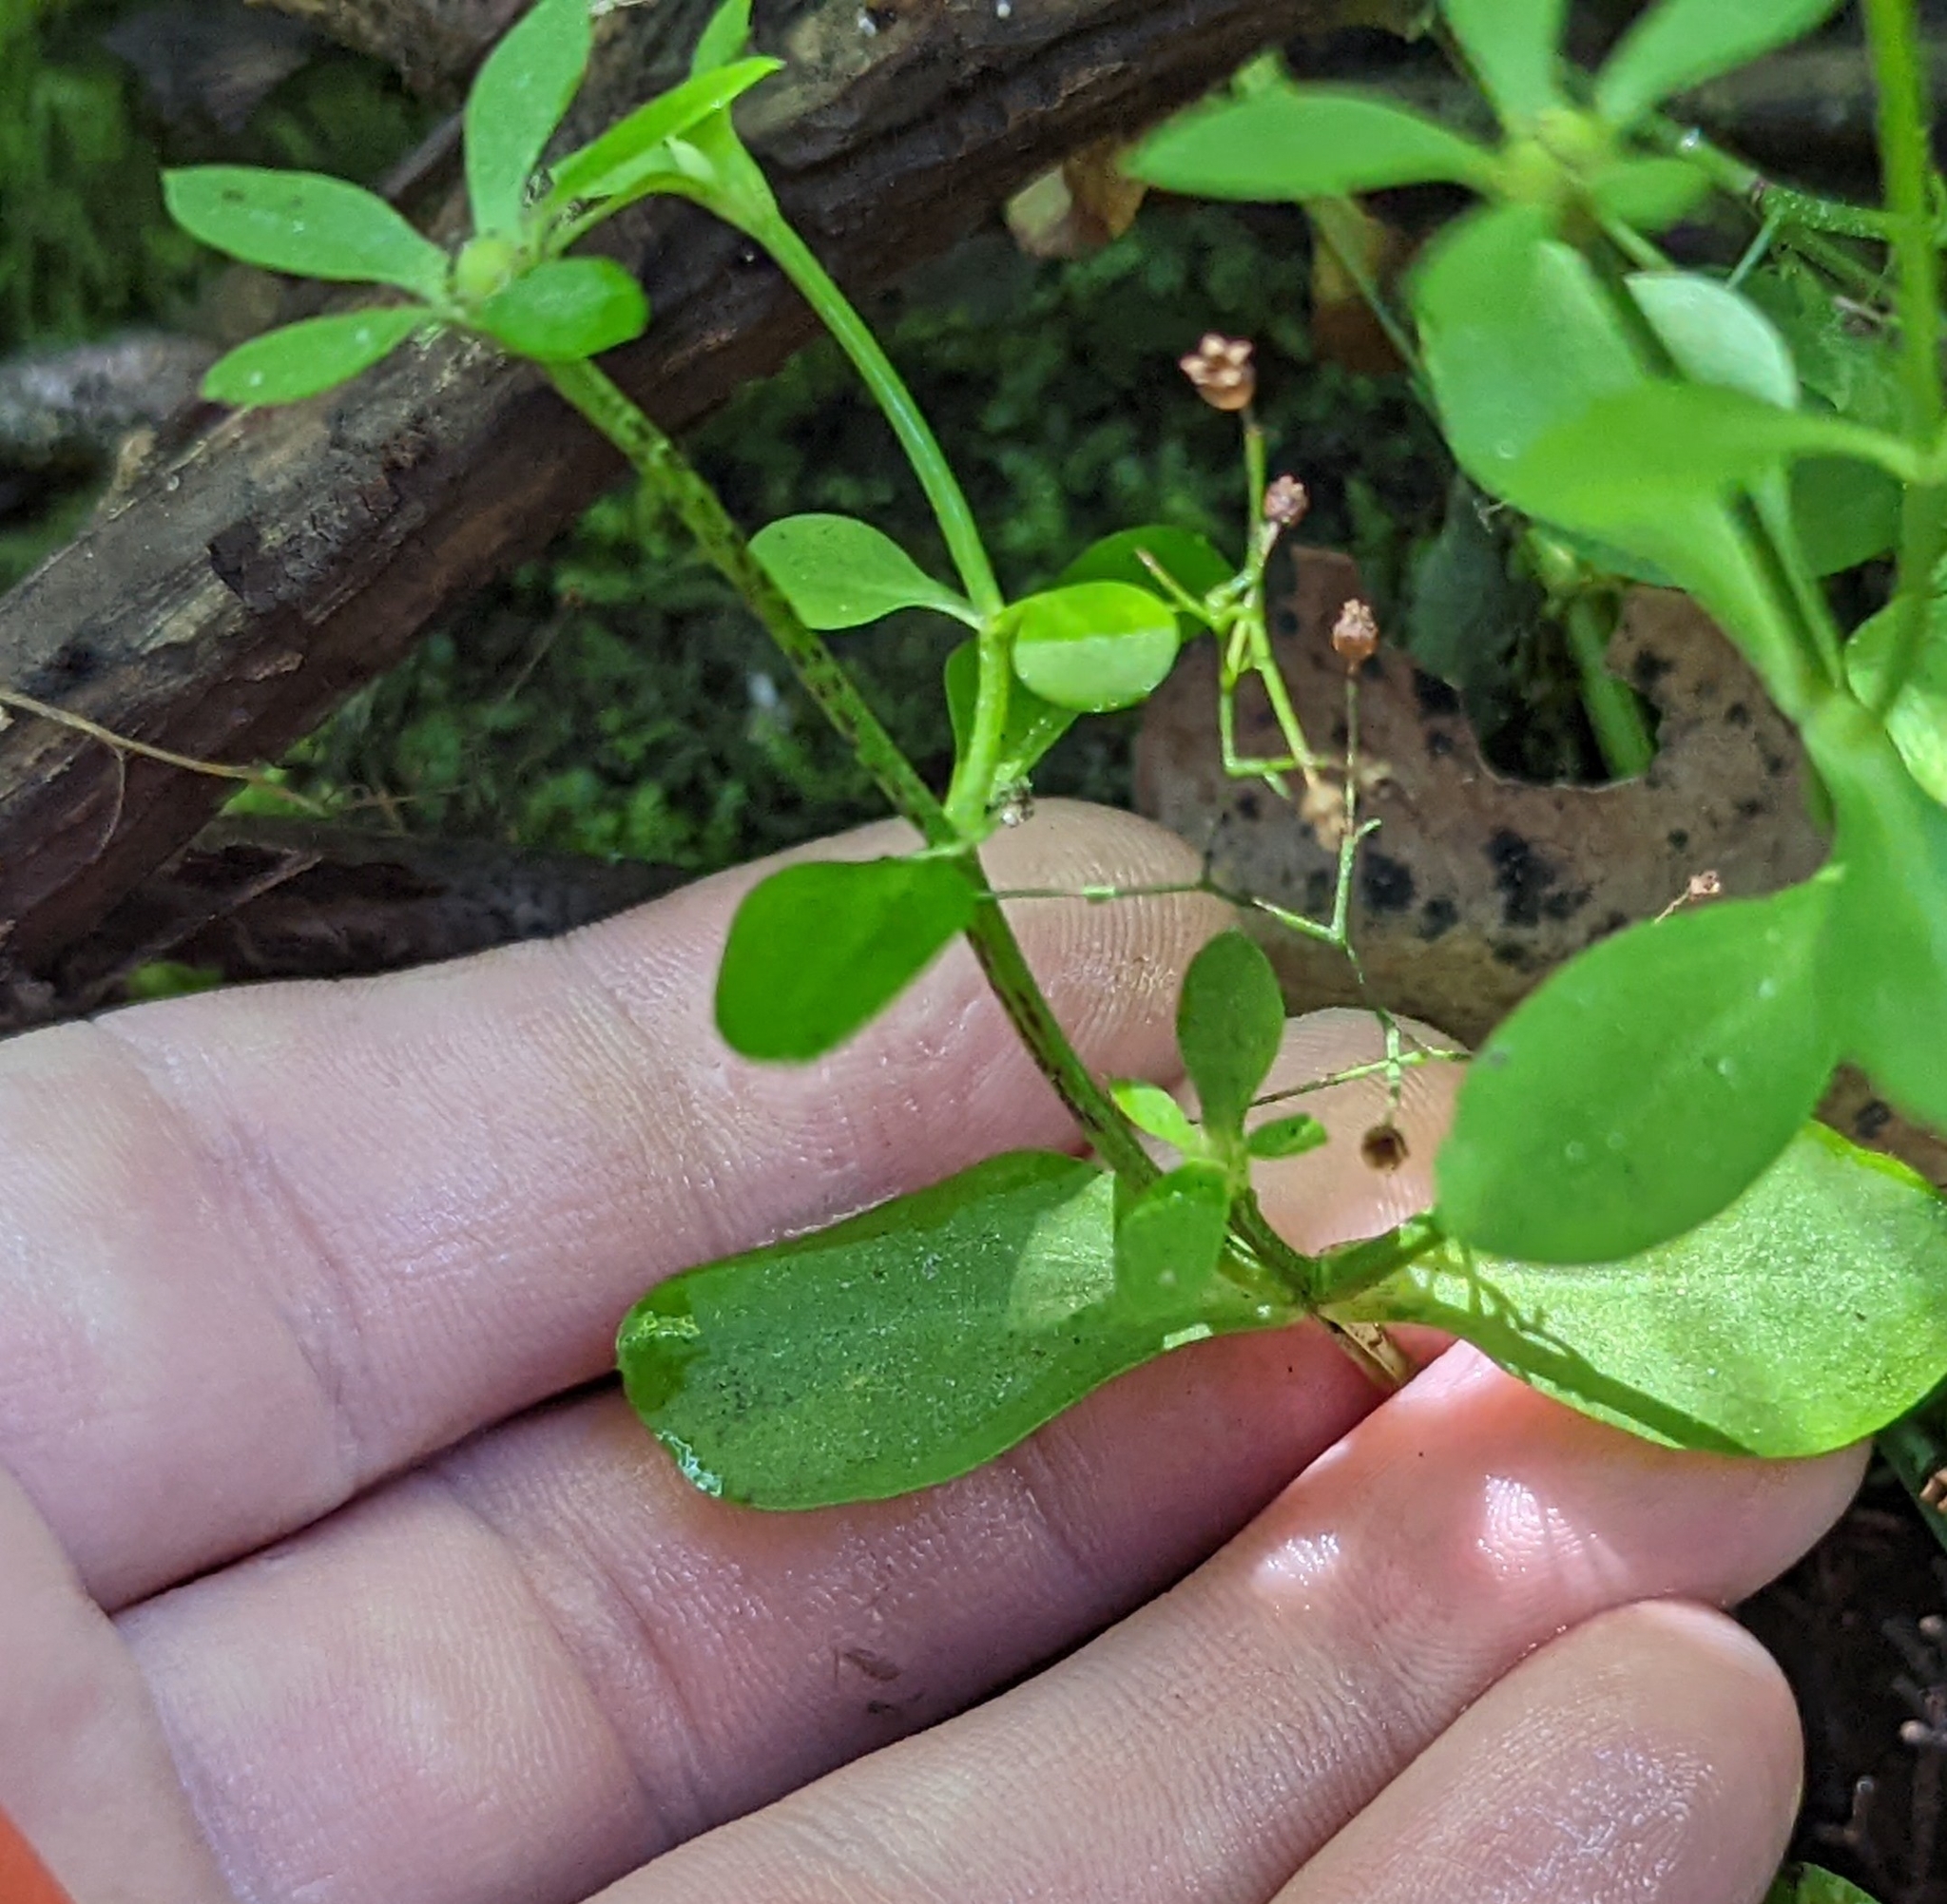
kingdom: Plantae
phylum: Tracheophyta
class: Magnoliopsida
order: Gentianales
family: Gentianaceae
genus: Sabatia
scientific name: Sabatia calycina
